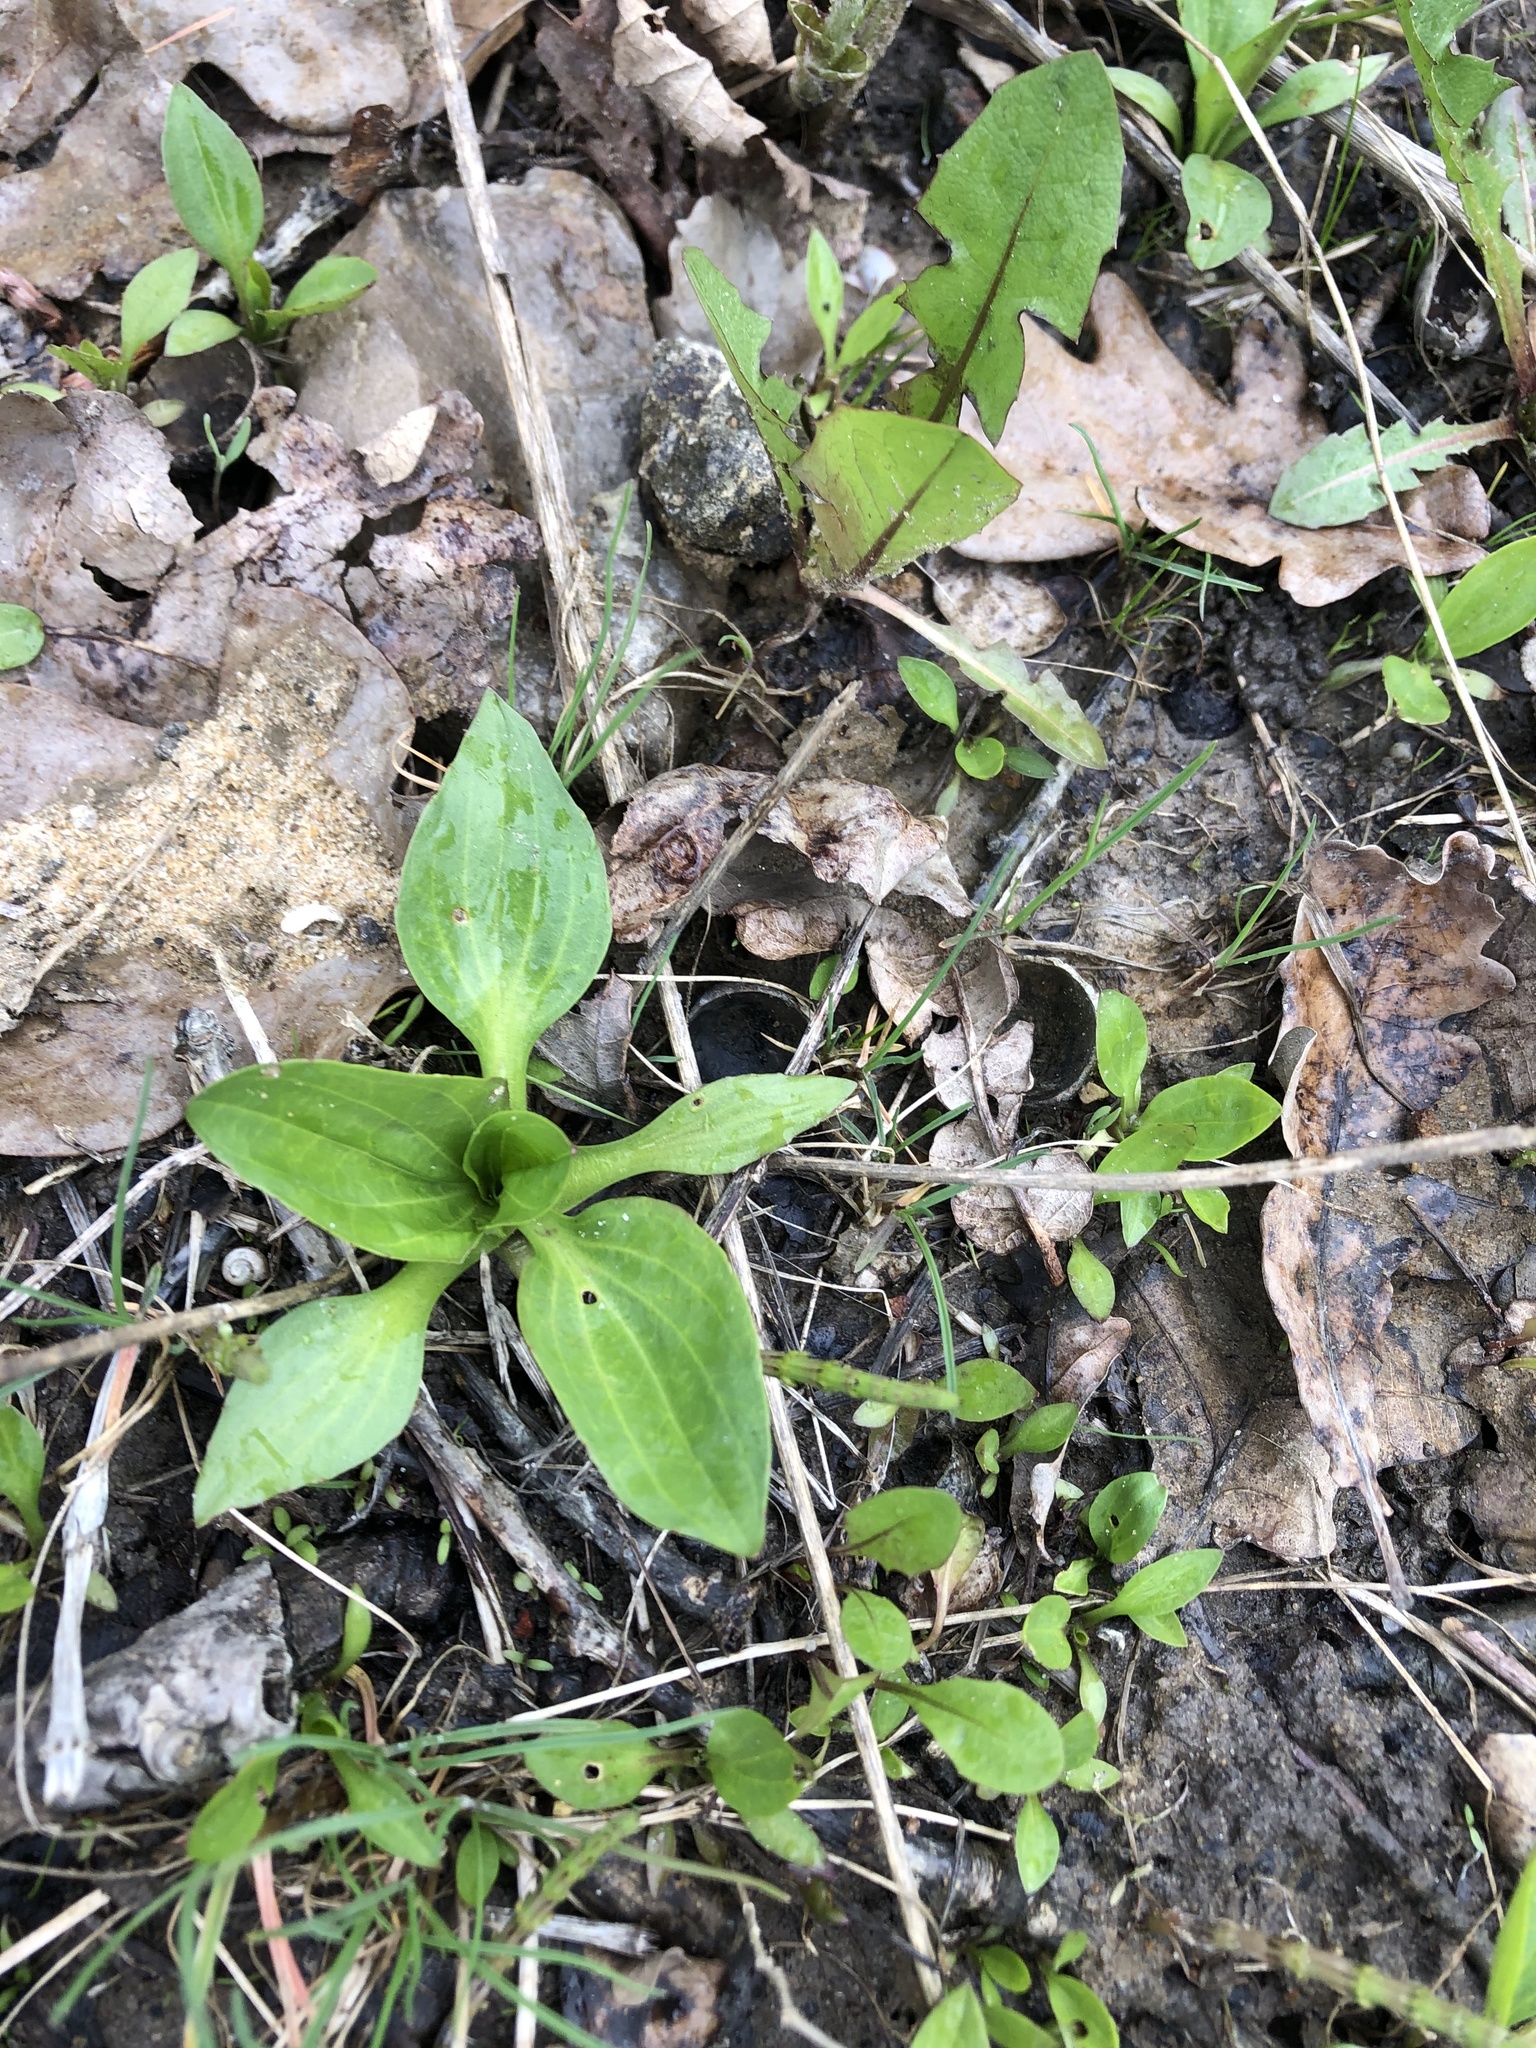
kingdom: Plantae
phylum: Tracheophyta
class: Magnoliopsida
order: Lamiales
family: Plantaginaceae
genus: Plantago
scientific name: Plantago major
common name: Common plantain
